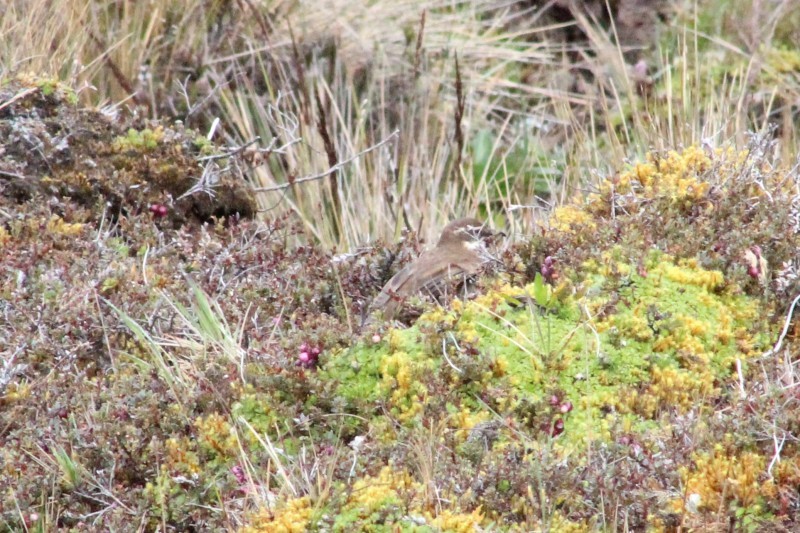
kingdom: Animalia
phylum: Chordata
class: Aves
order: Passeriformes
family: Furnariidae
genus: Cinclodes
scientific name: Cinclodes excelsior
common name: Stout-billed cinclodes
